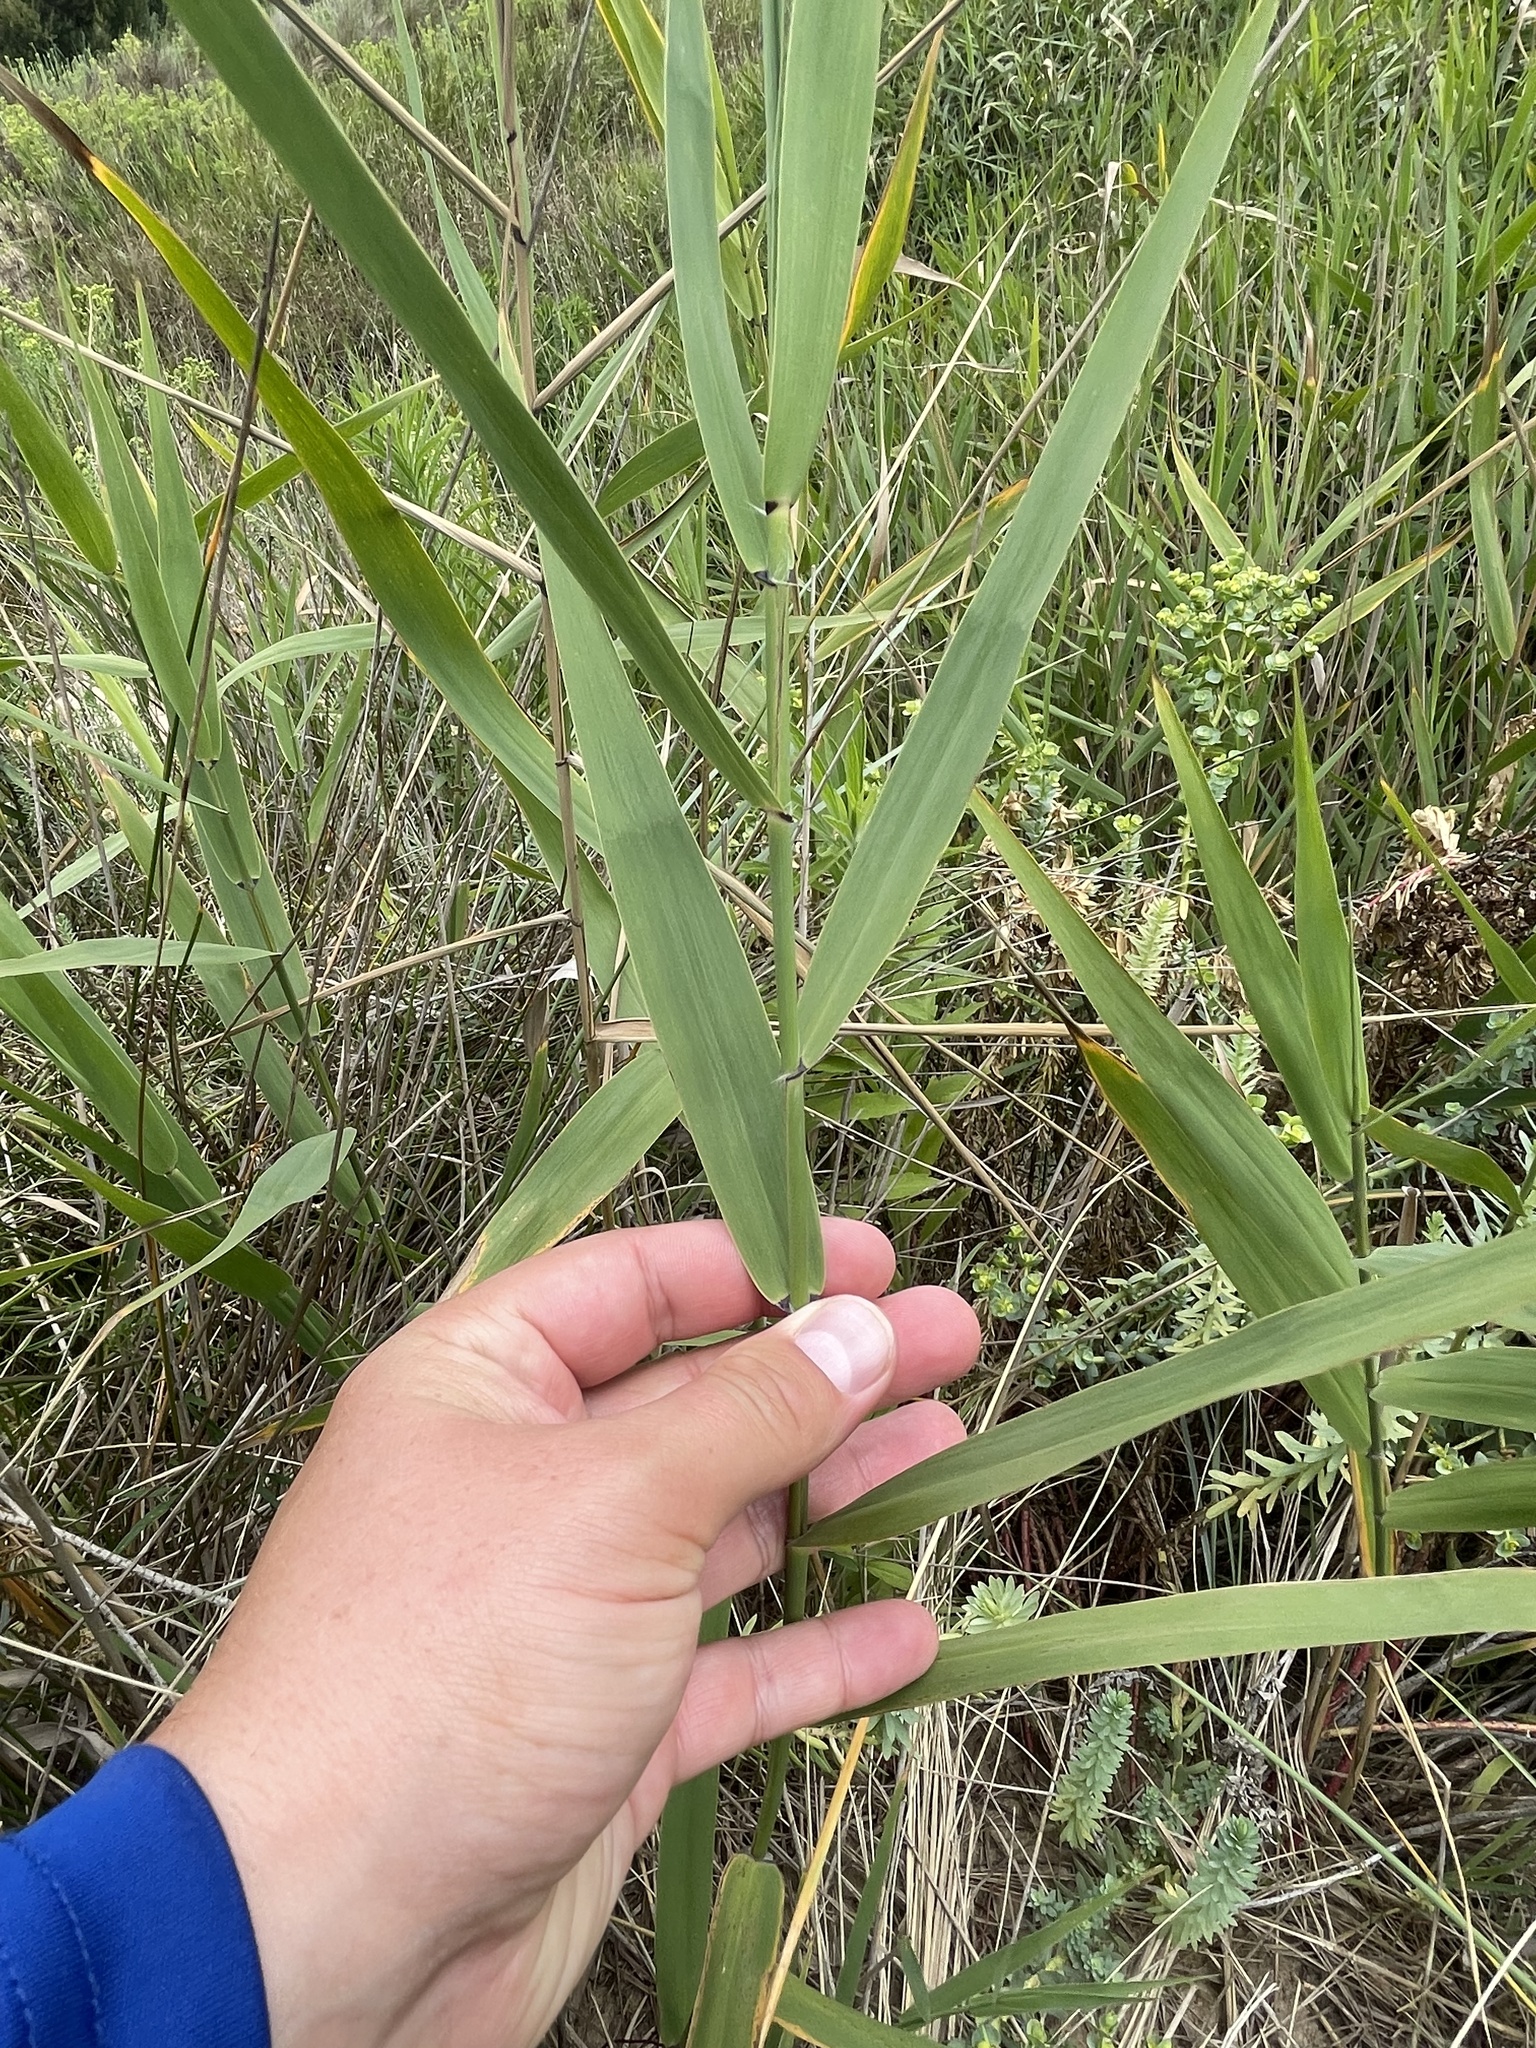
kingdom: Plantae
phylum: Tracheophyta
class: Liliopsida
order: Poales
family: Poaceae
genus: Phragmites
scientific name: Phragmites australis
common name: Common reed
